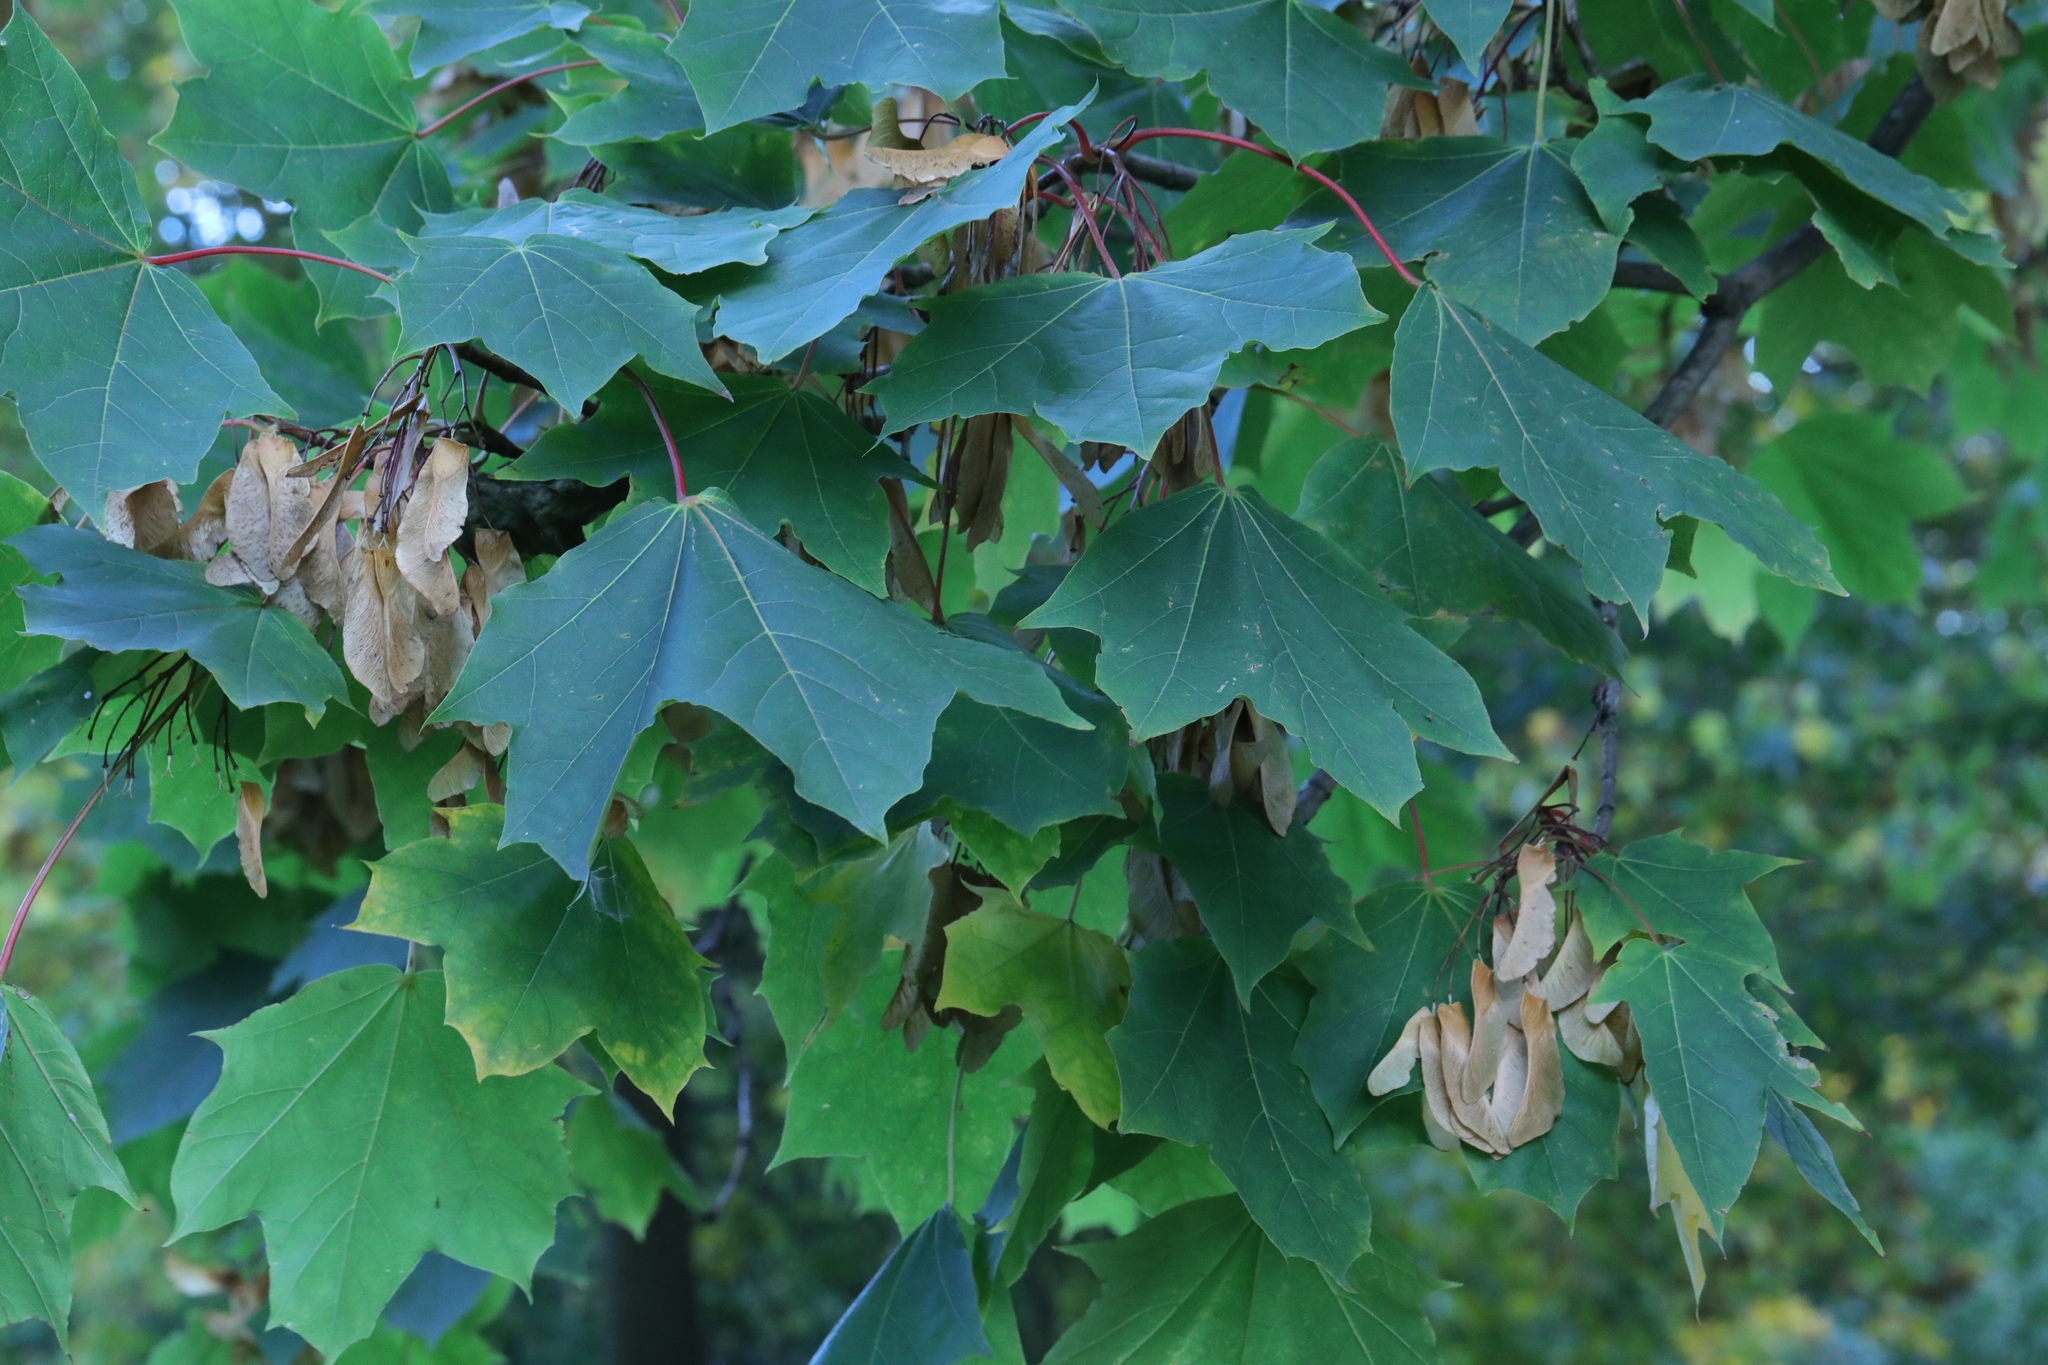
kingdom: Plantae
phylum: Tracheophyta
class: Magnoliopsida
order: Sapindales
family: Sapindaceae
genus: Acer
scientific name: Acer platanoides
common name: Norway maple
